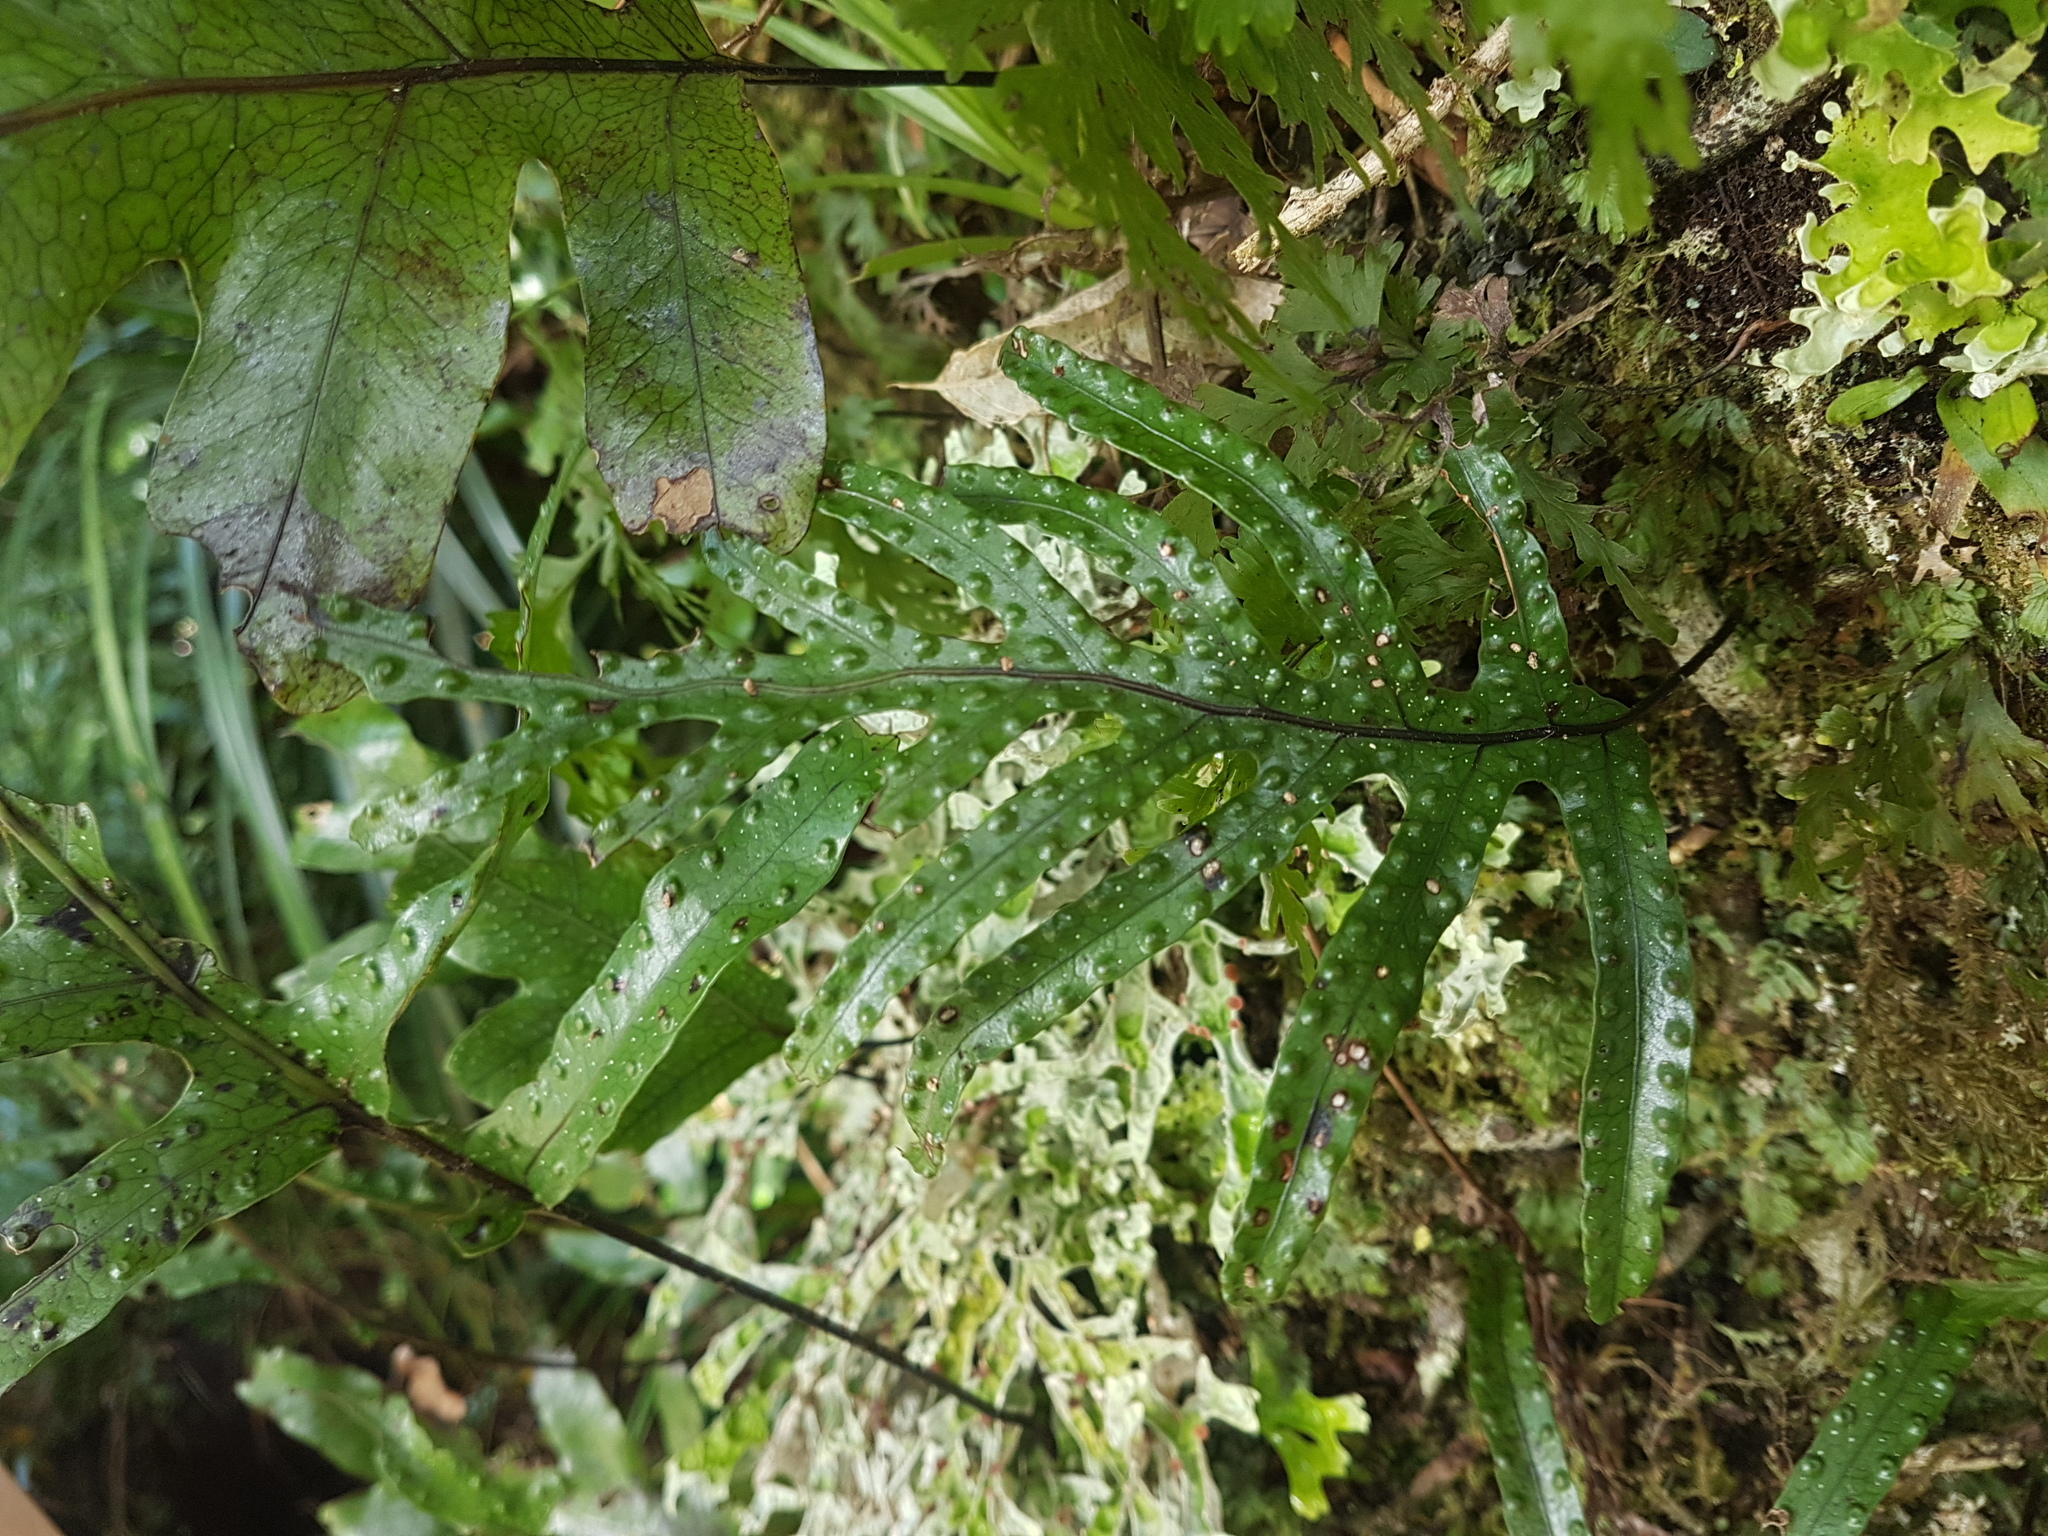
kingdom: Plantae
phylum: Tracheophyta
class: Polypodiopsida
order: Polypodiales
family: Polypodiaceae
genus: Lecanopteris
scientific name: Lecanopteris pustulata
